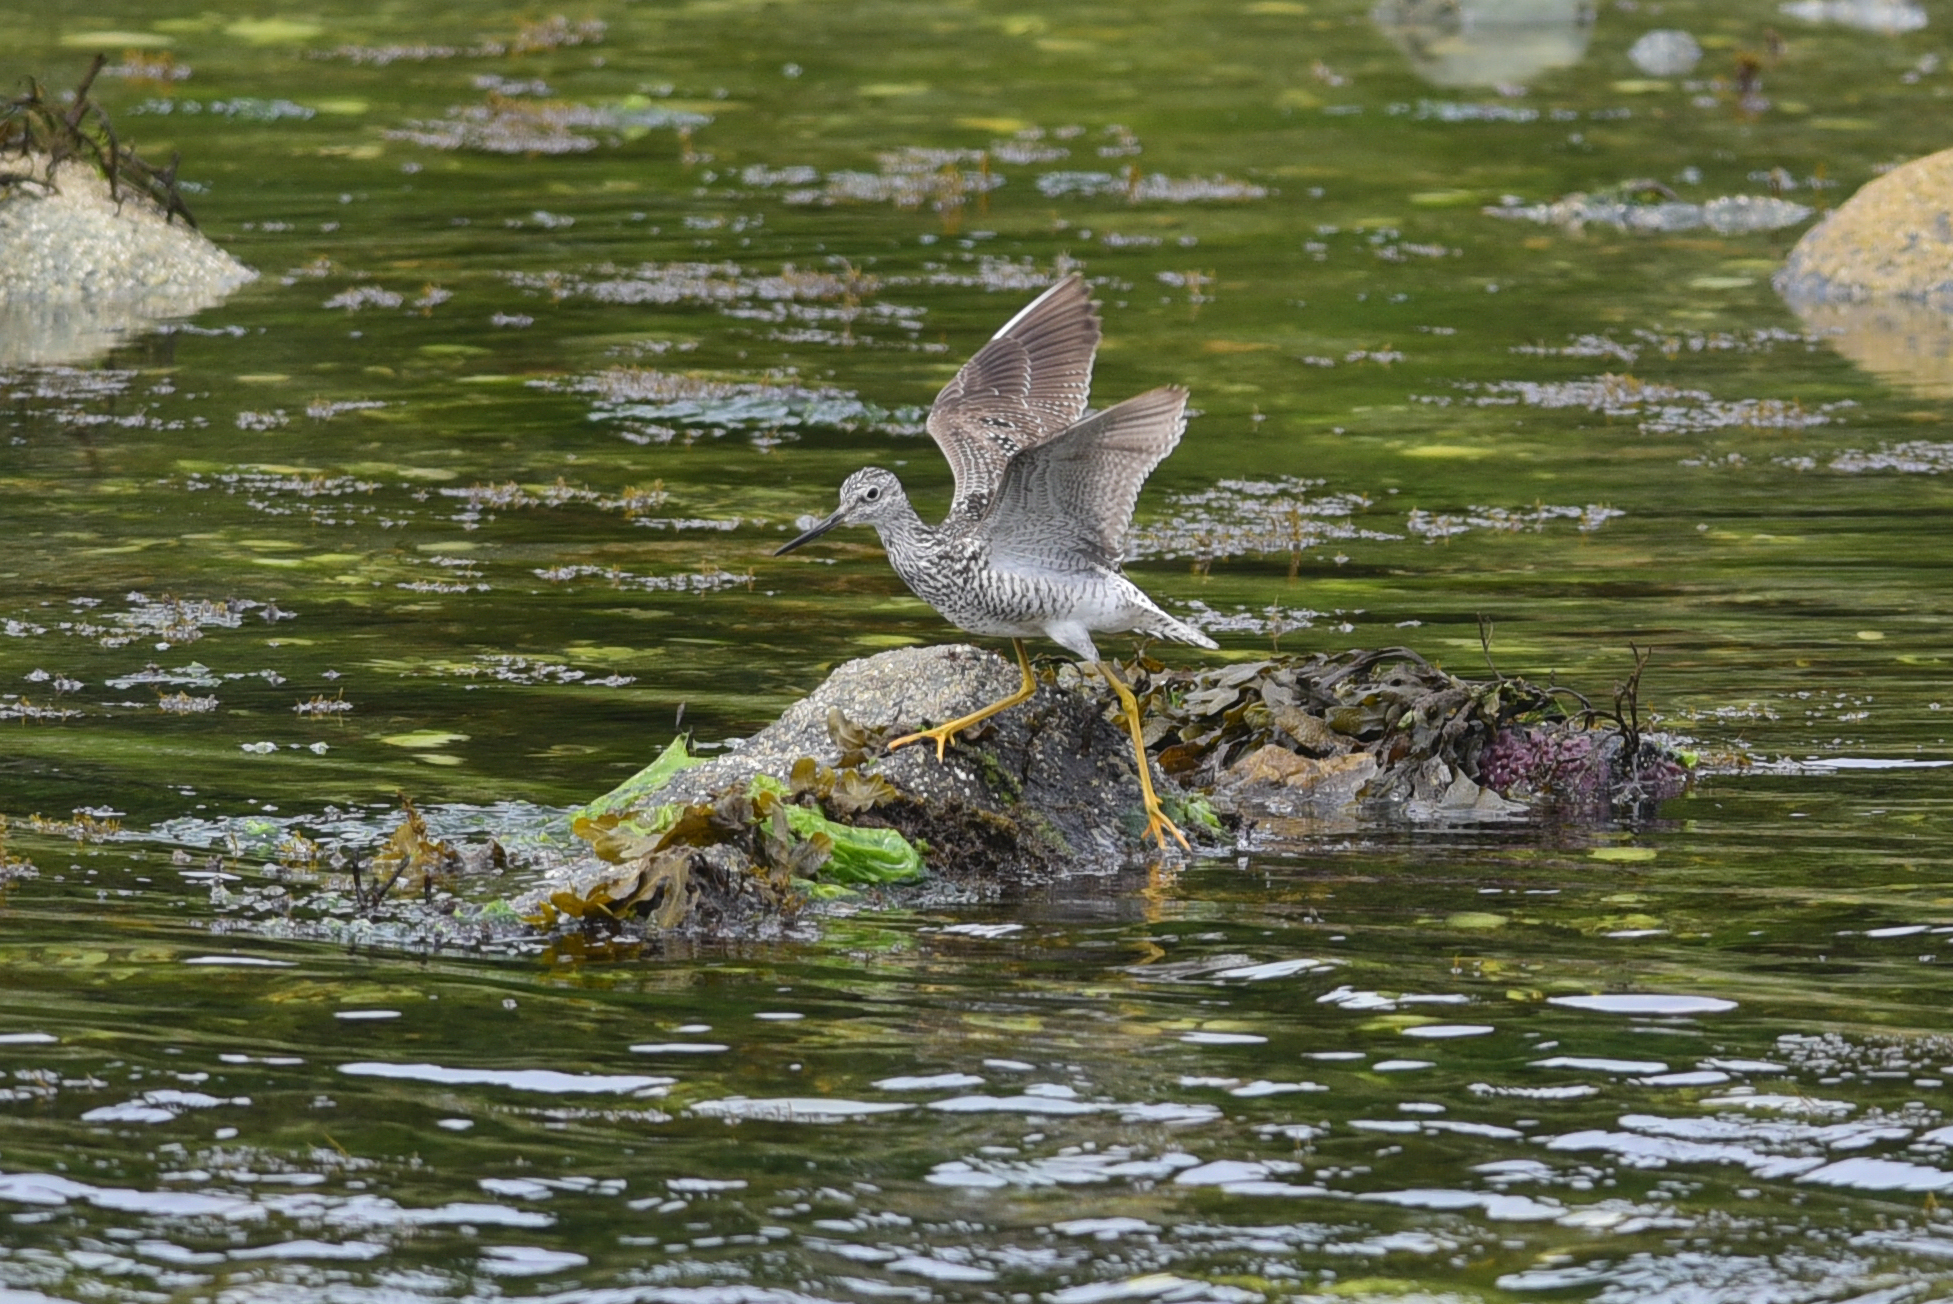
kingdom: Animalia
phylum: Chordata
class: Aves
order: Charadriiformes
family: Scolopacidae
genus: Tringa
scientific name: Tringa melanoleuca
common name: Greater yellowlegs
